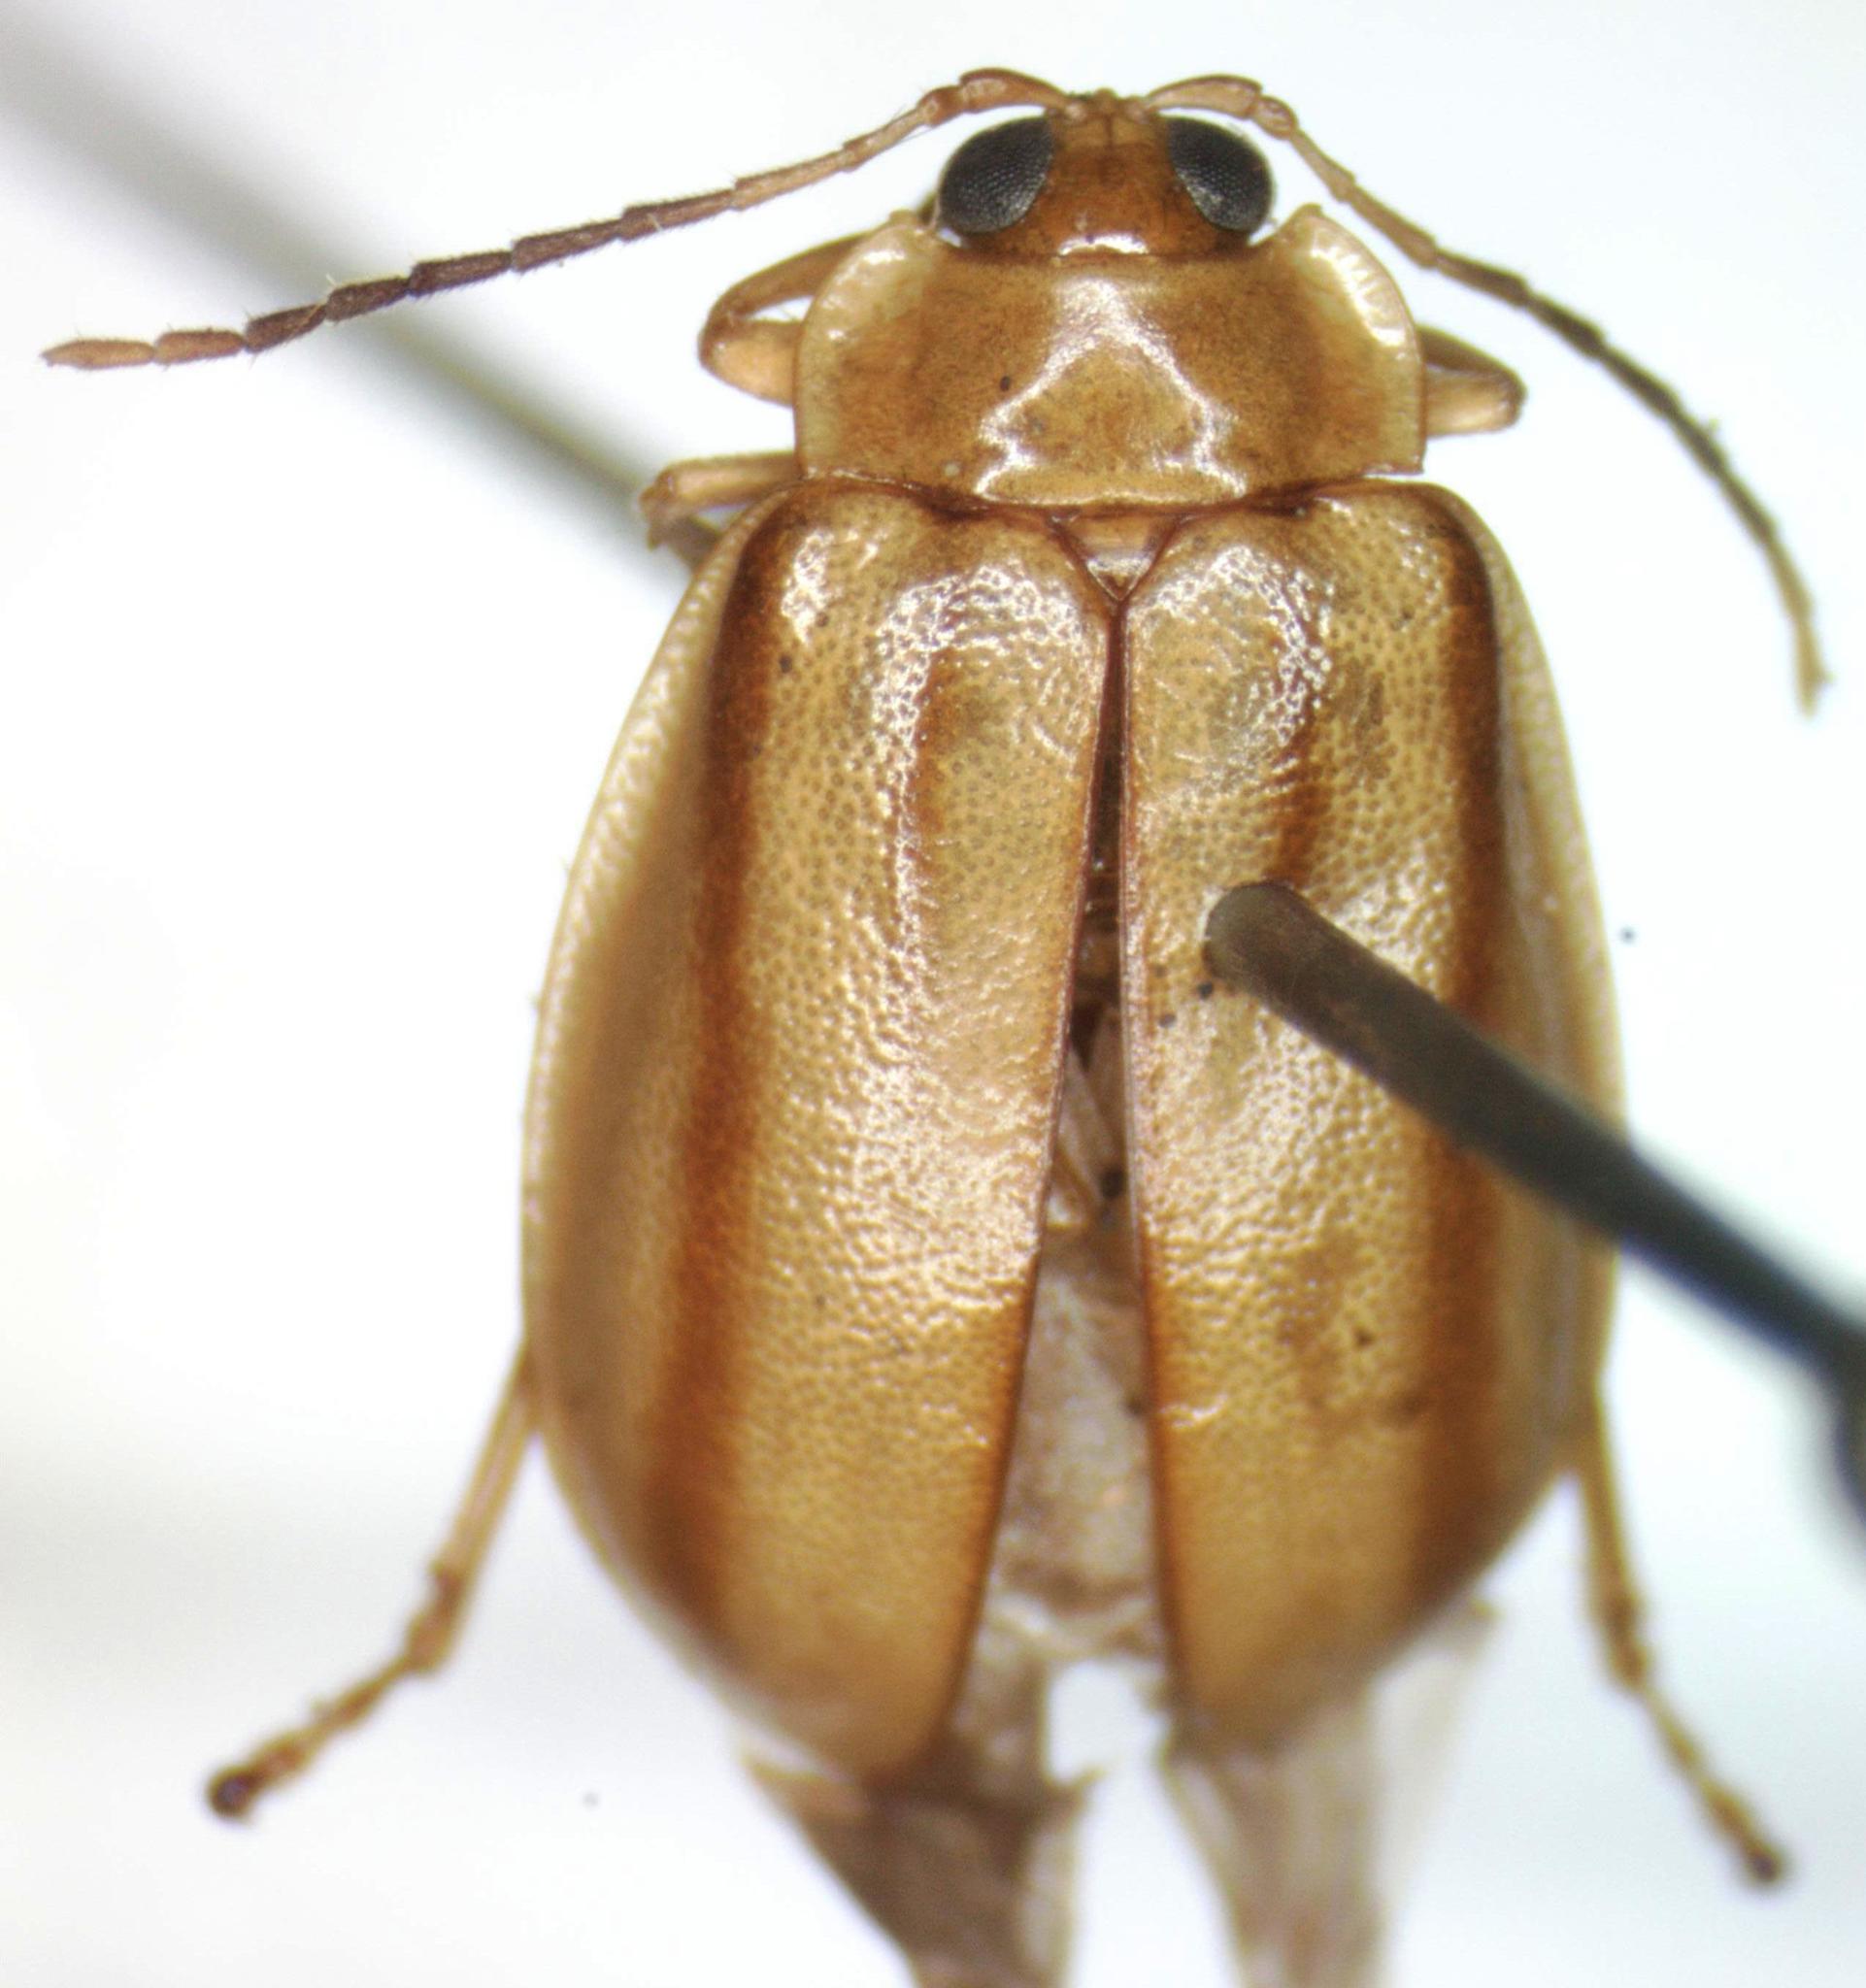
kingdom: Animalia
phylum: Arthropoda
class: Insecta
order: Coleoptera
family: Chrysomelidae
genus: Walterianella
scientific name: Walterianella
